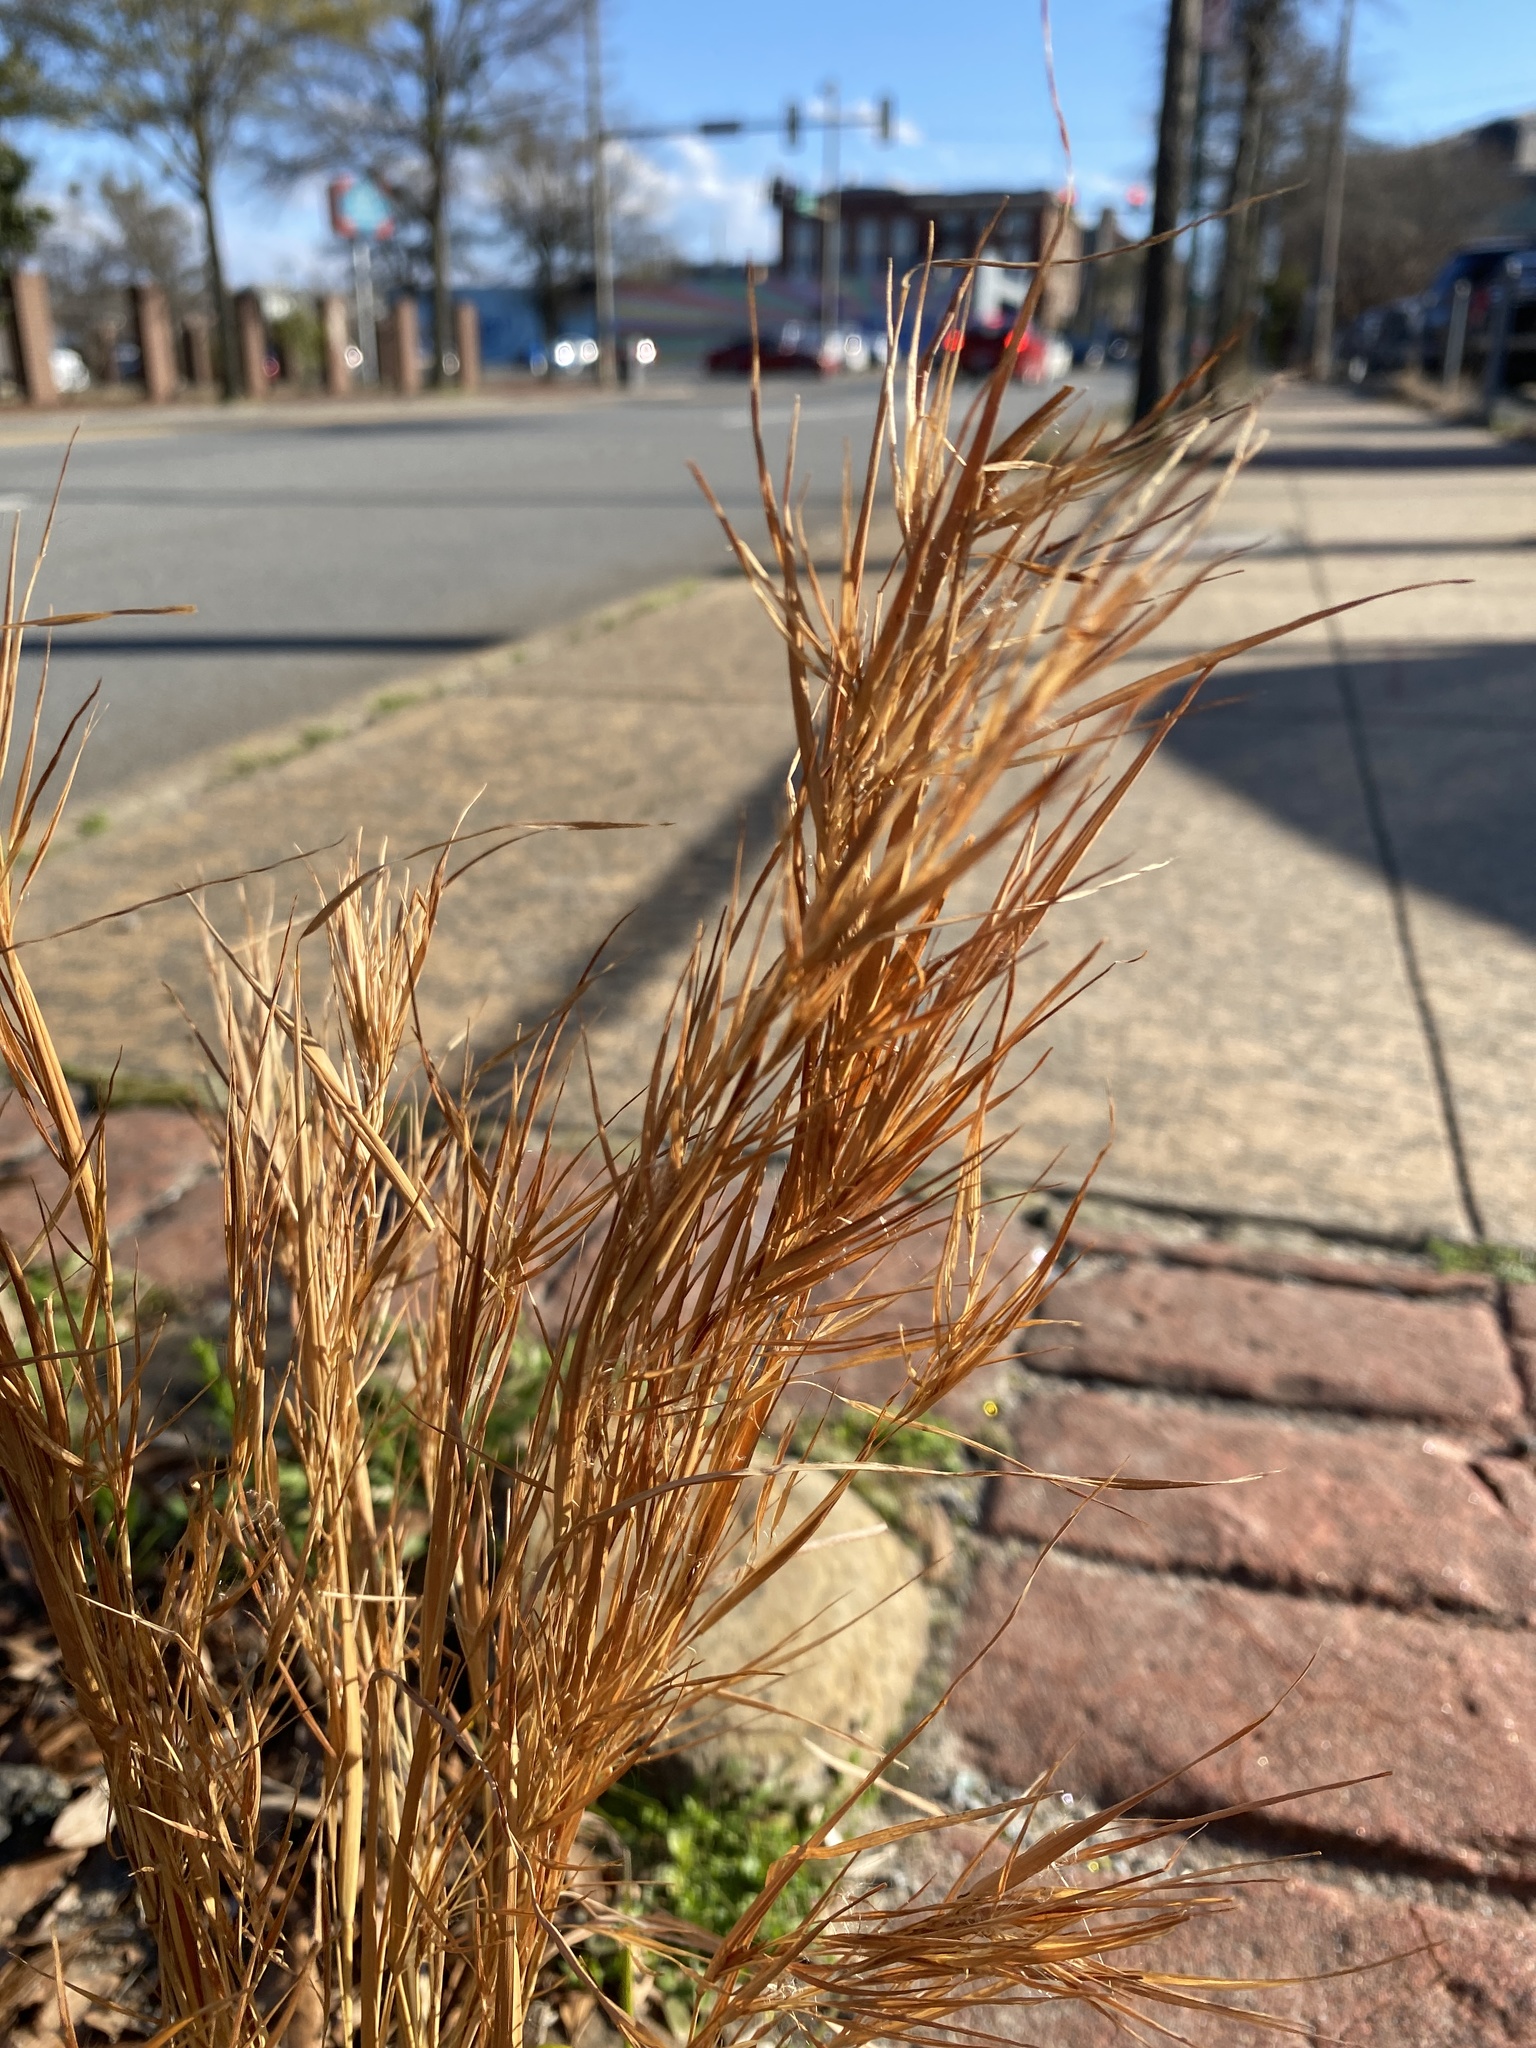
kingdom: Plantae
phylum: Tracheophyta
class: Liliopsida
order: Poales
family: Poaceae
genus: Andropogon
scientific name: Andropogon virginicus
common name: Broomsedge bluestem
